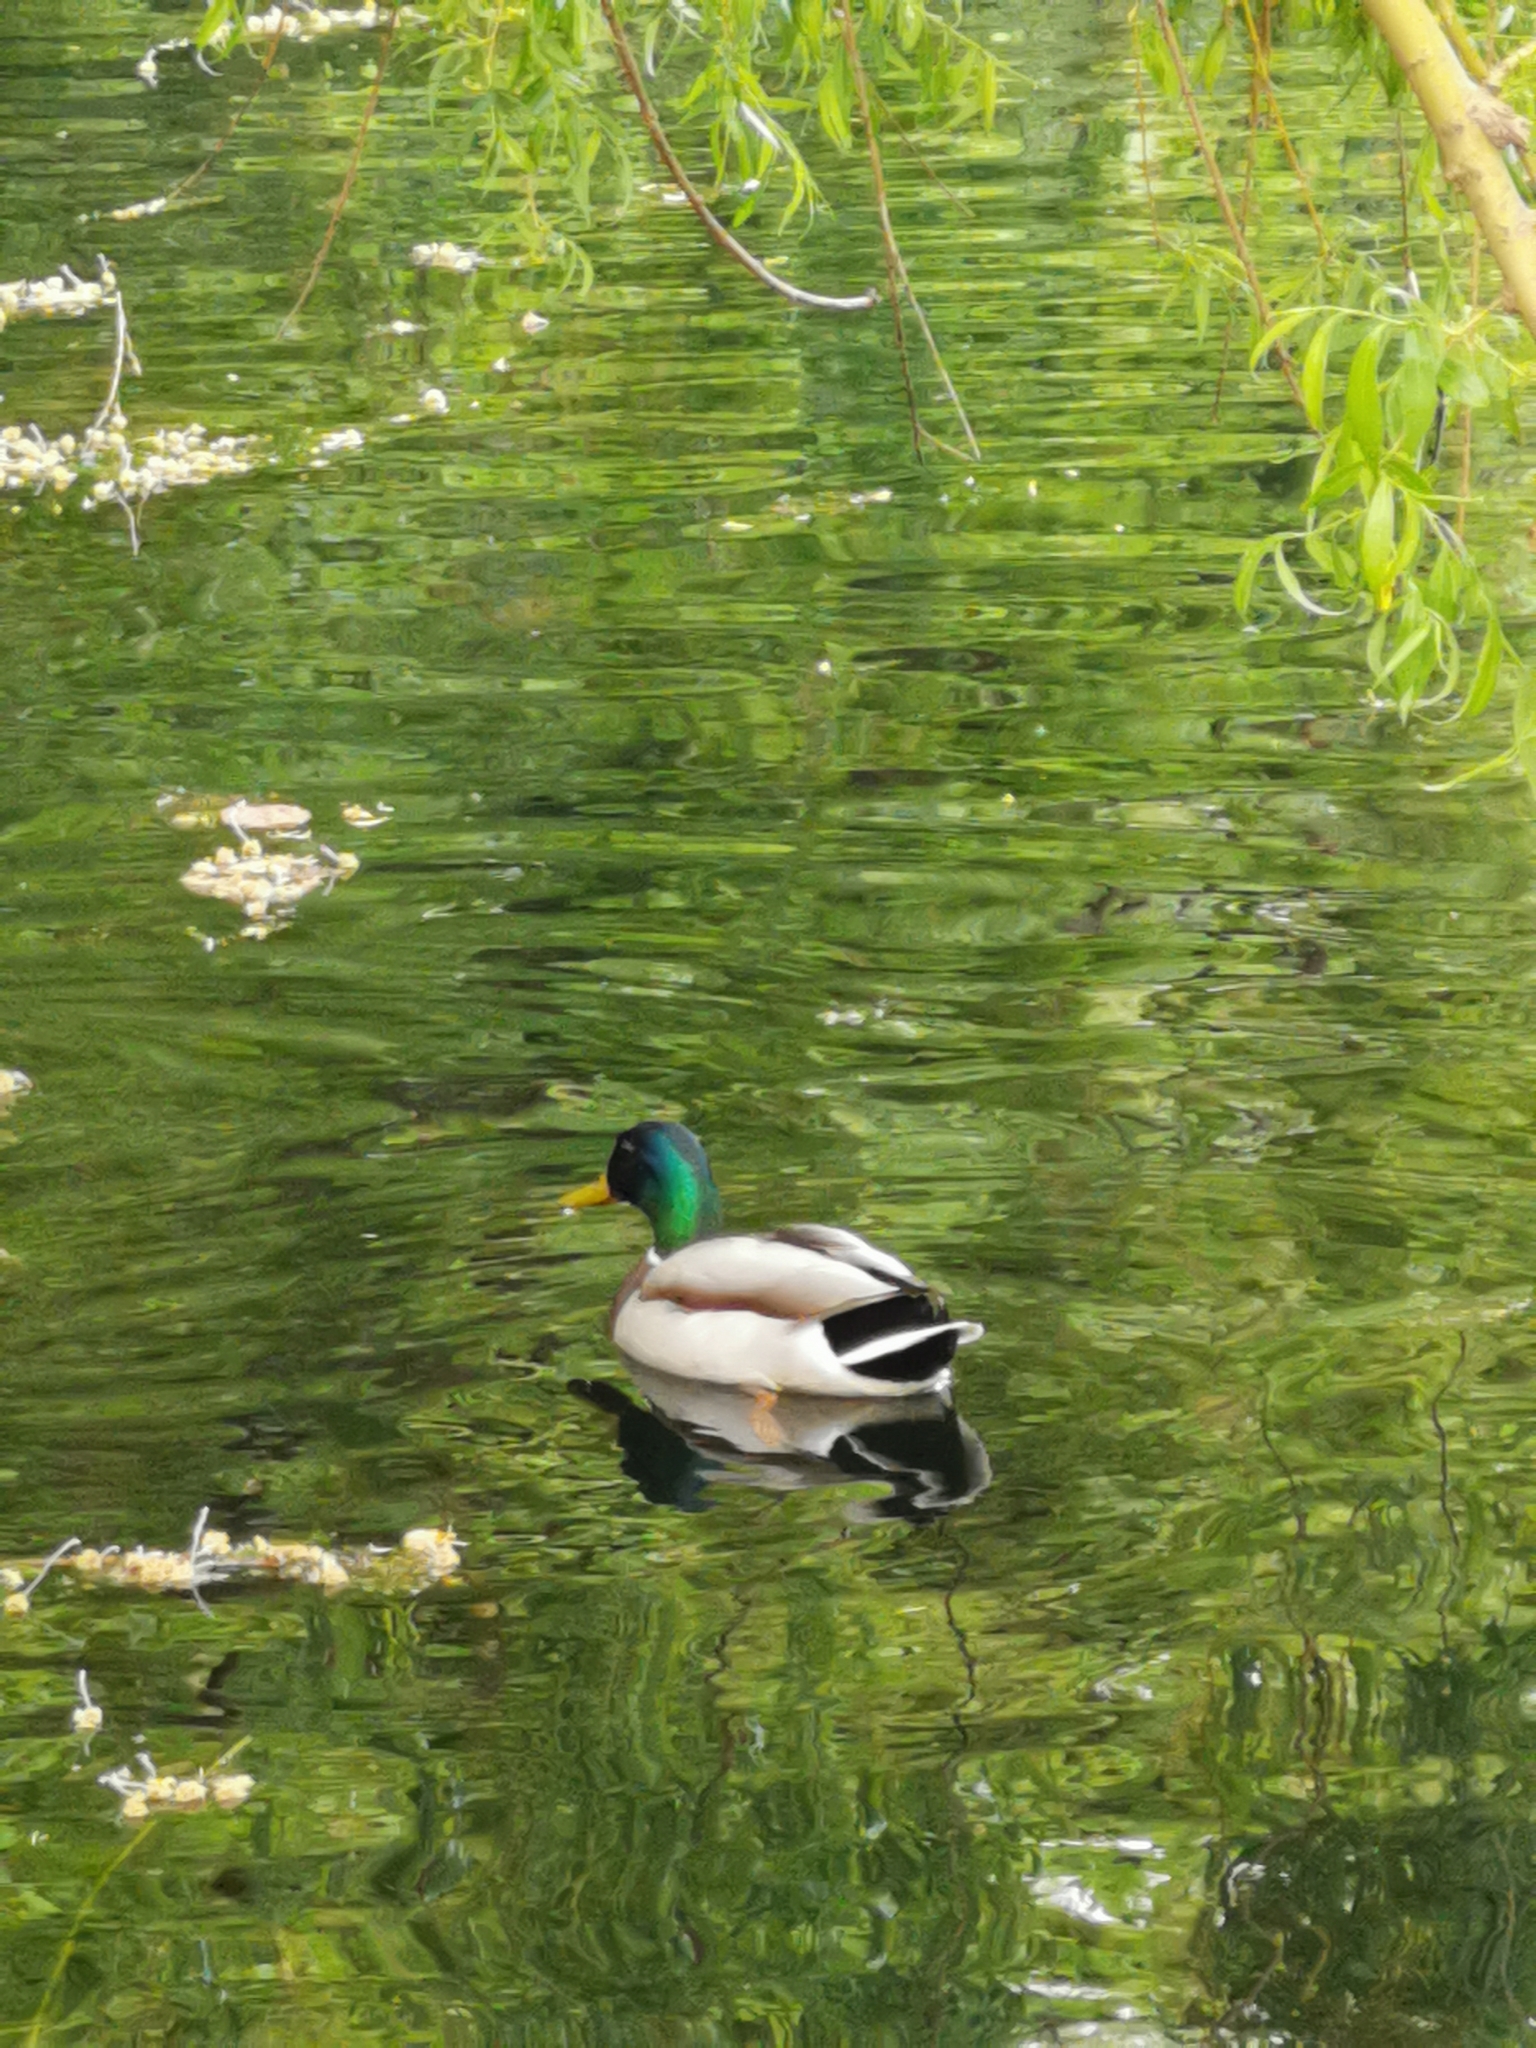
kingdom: Animalia
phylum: Chordata
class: Aves
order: Anseriformes
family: Anatidae
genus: Anas
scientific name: Anas platyrhynchos
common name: Mallard
